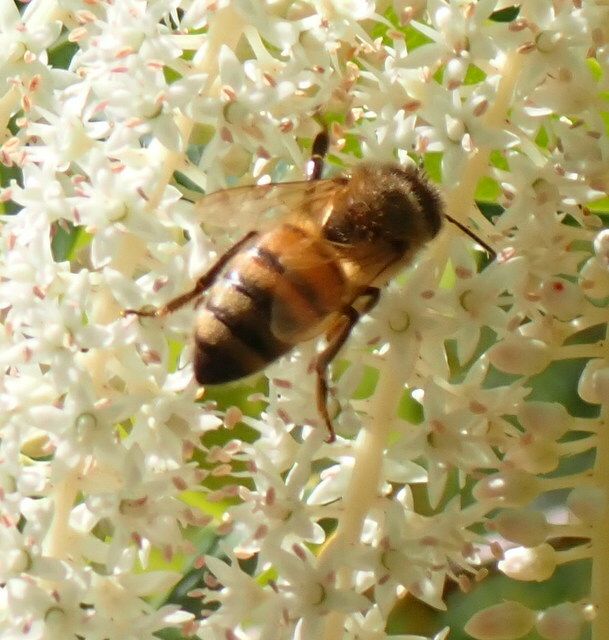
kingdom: Animalia
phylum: Arthropoda
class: Insecta
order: Hymenoptera
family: Apidae
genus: Apis
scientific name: Apis mellifera
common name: Honey bee
